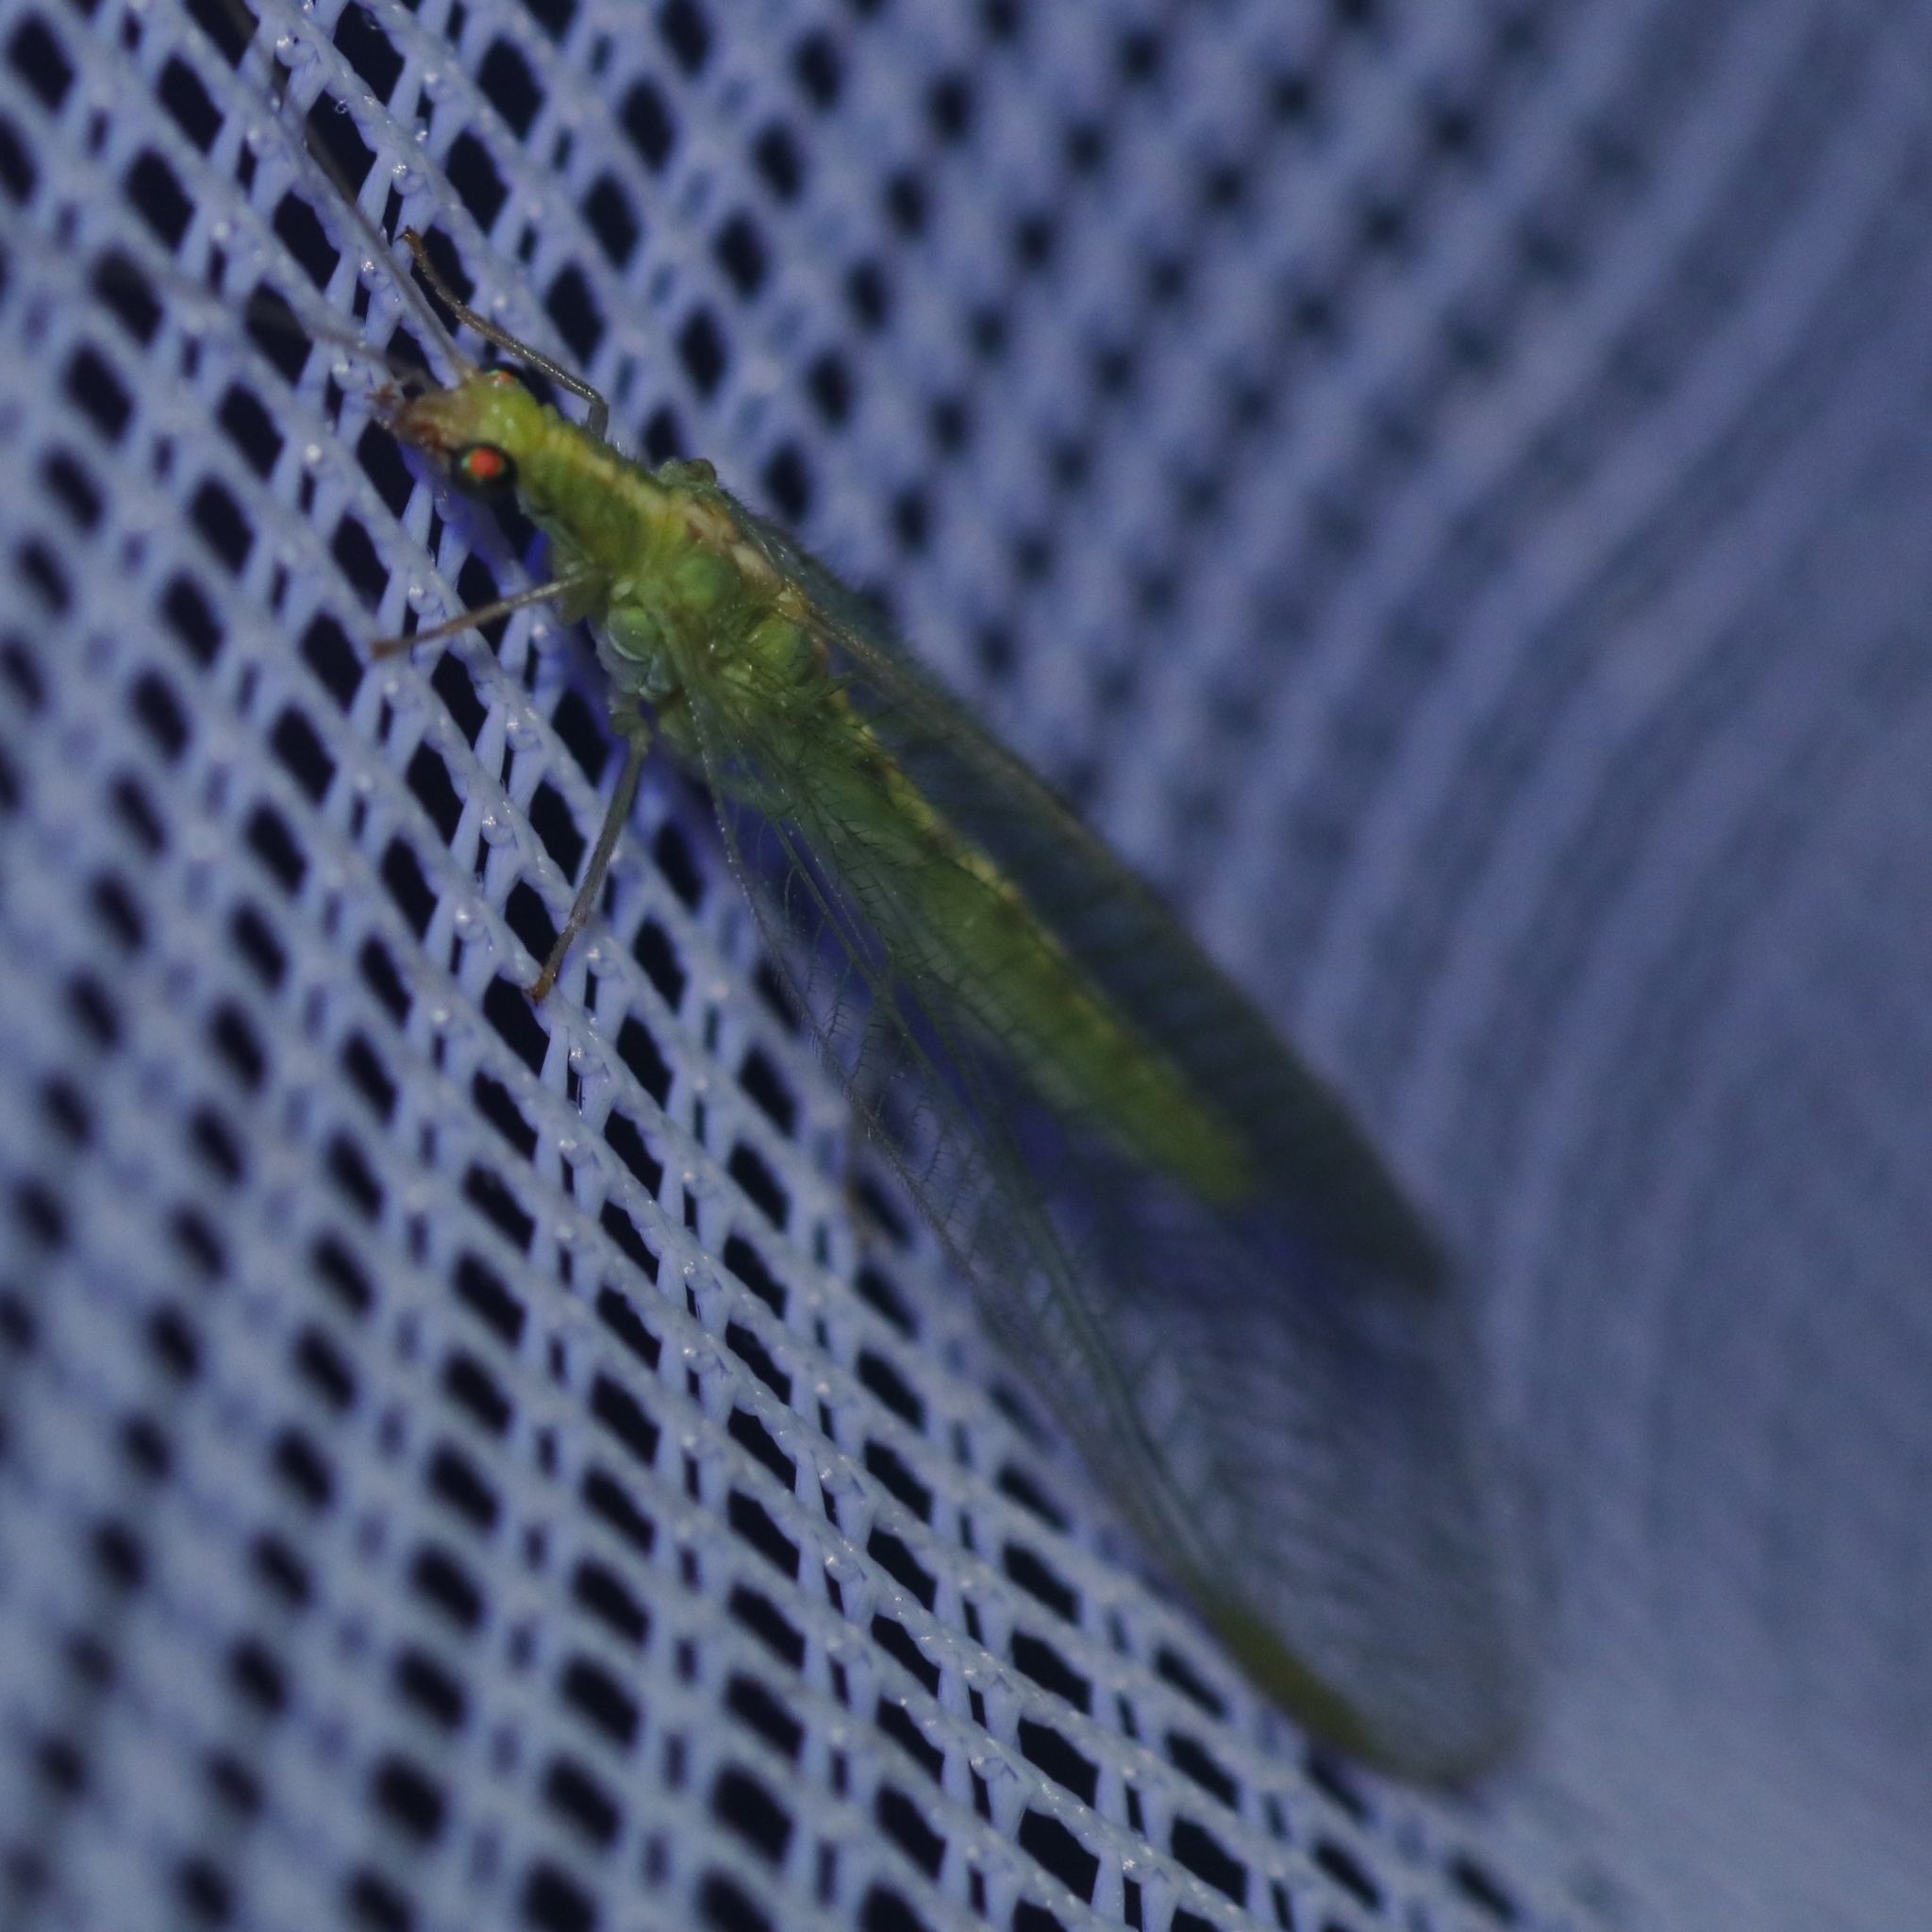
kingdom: Animalia
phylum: Arthropoda
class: Insecta
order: Neuroptera
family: Chrysopidae
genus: Chrysoperla
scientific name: Chrysoperla
